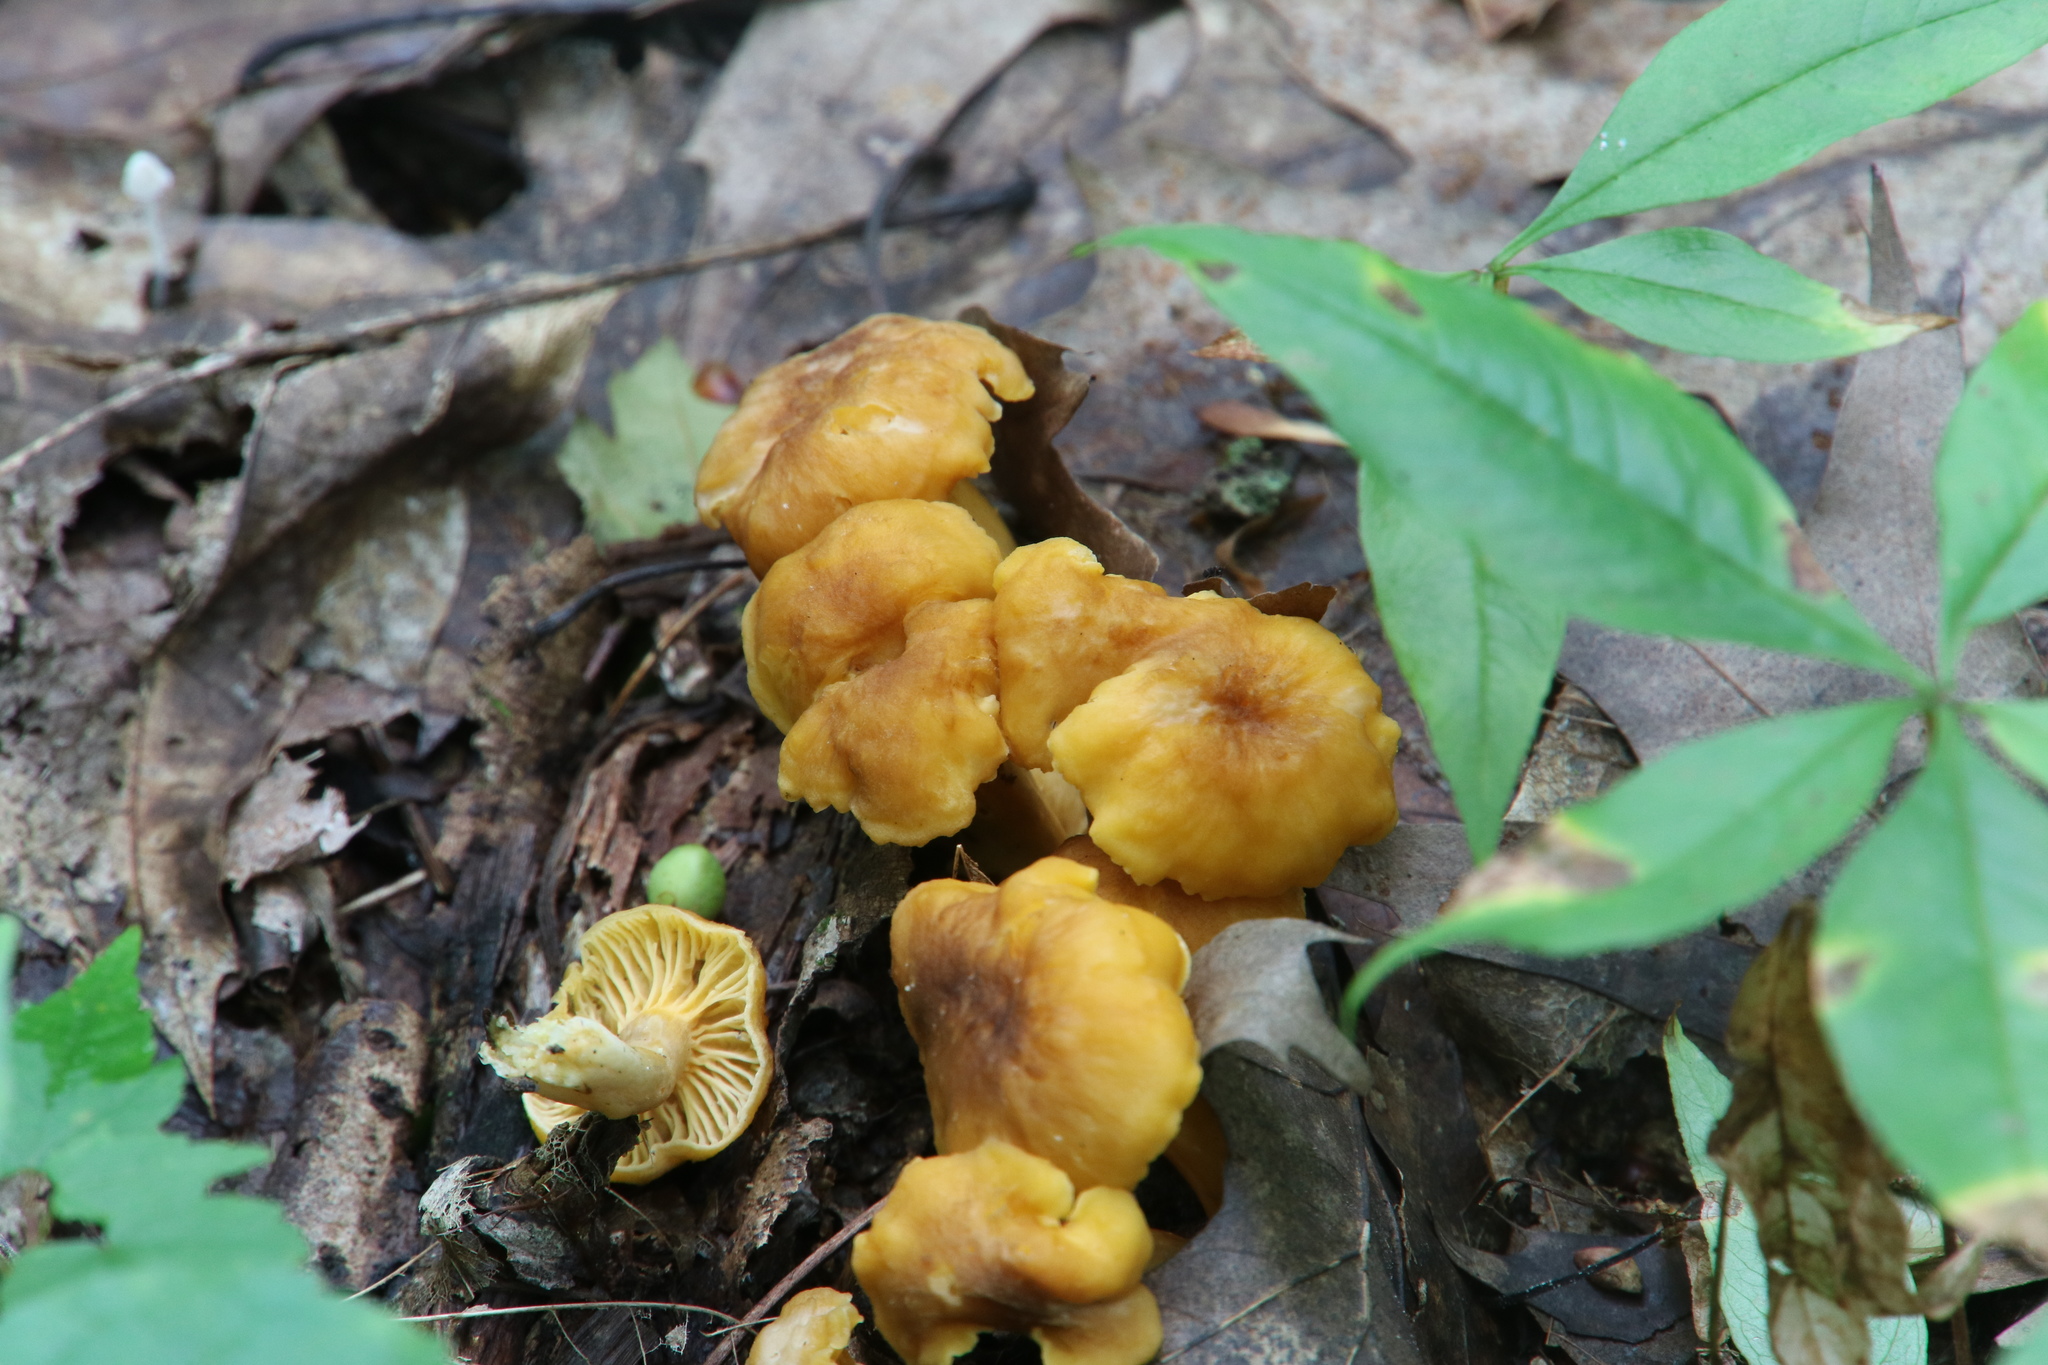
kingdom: Fungi
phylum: Basidiomycota
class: Agaricomycetes
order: Cantharellales
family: Hydnaceae
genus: Cantharellus
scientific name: Cantharellus appalachiensis
